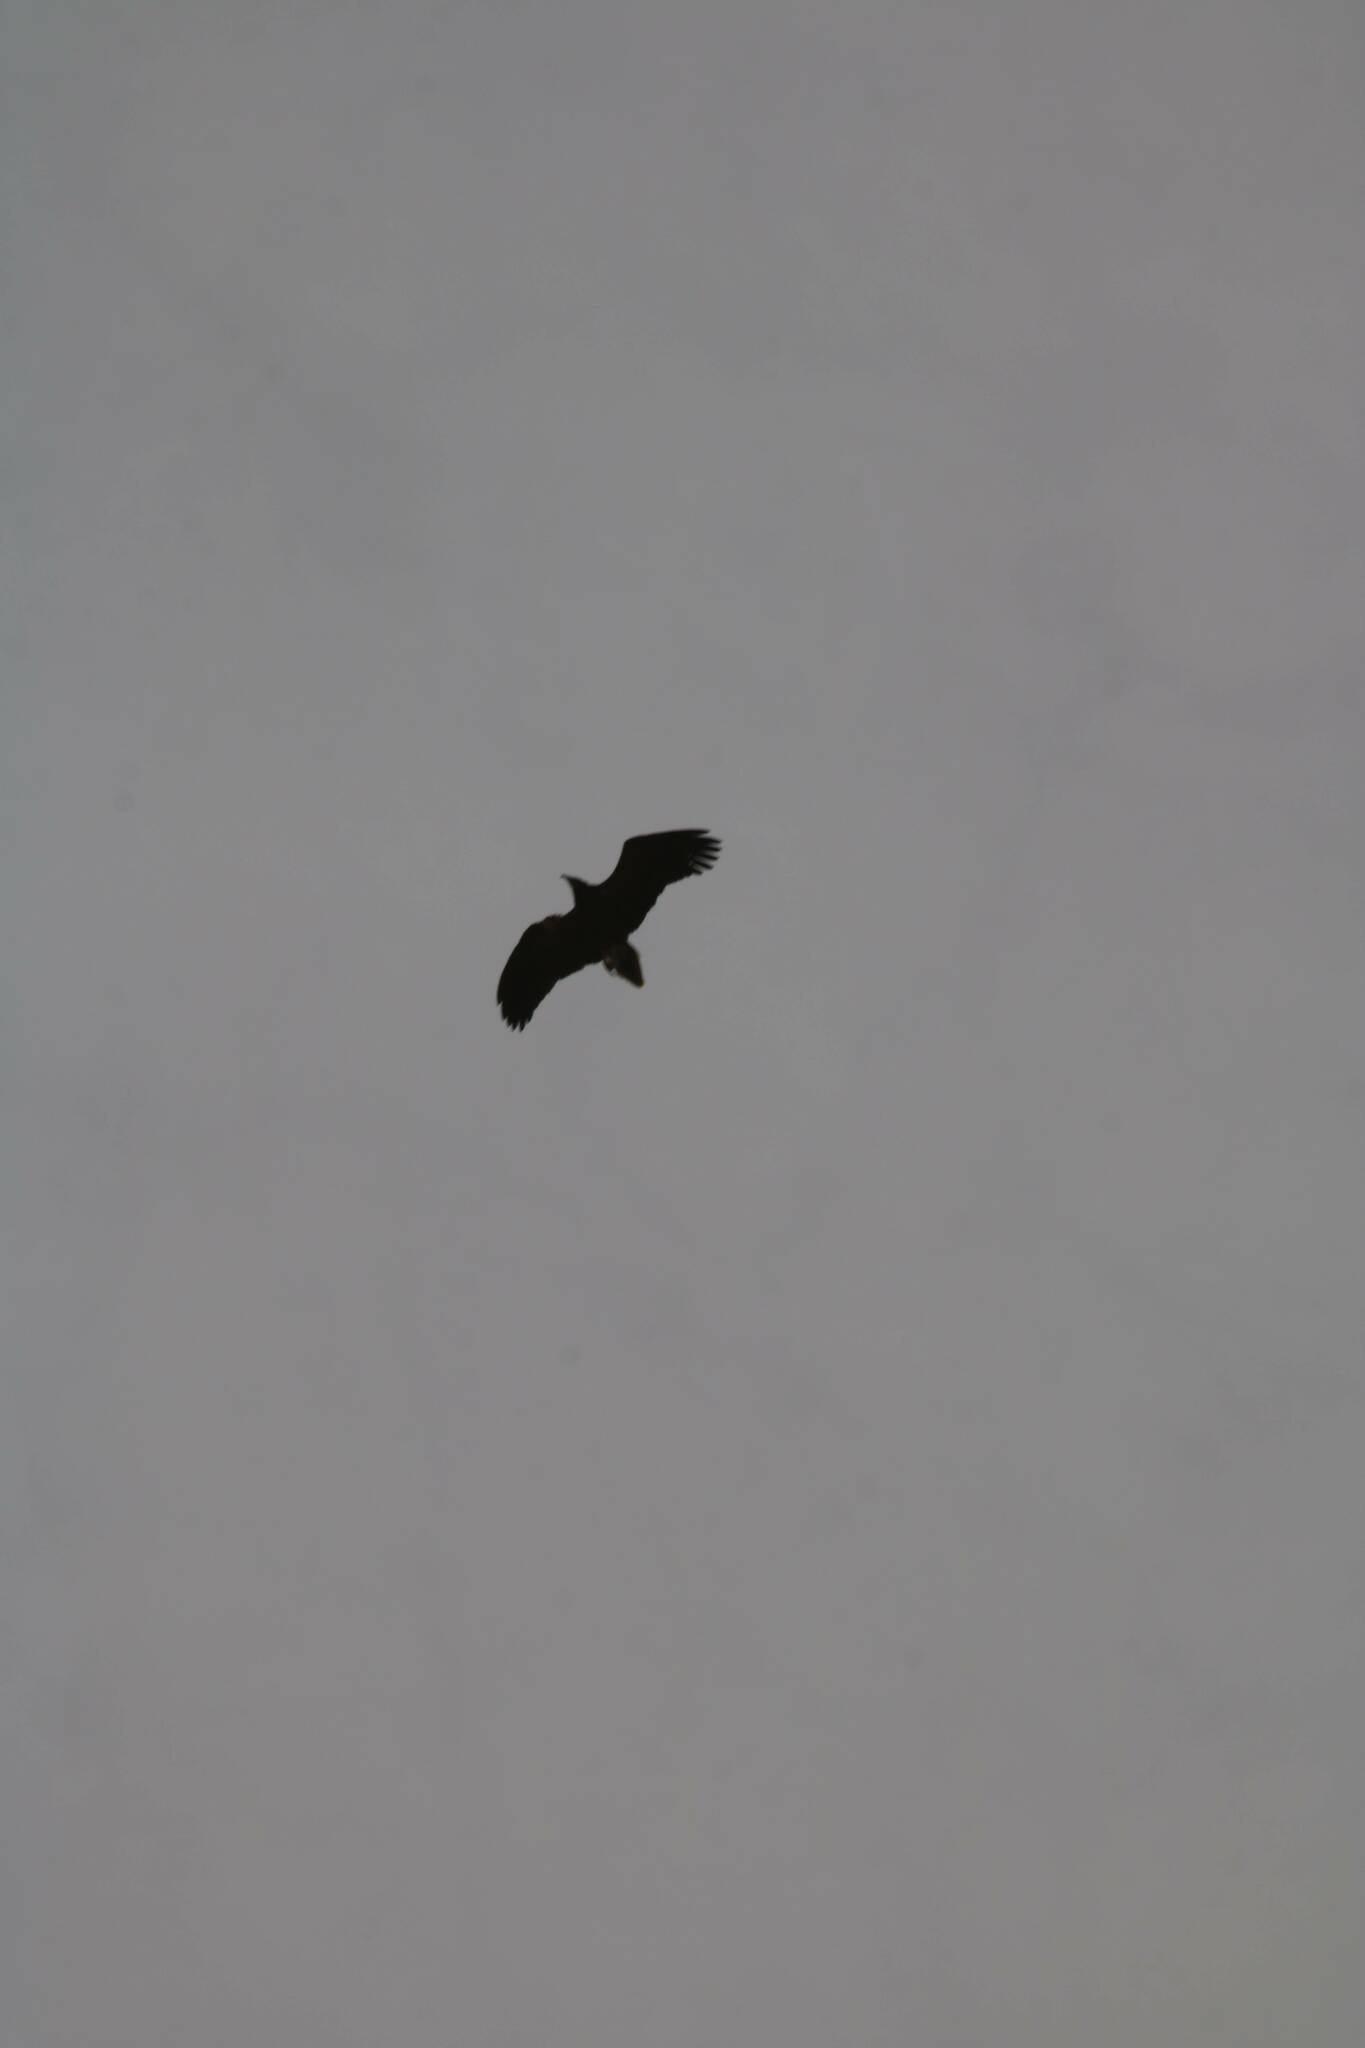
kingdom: Animalia
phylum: Chordata
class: Aves
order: Accipitriformes
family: Accipitridae
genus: Neophron
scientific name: Neophron percnopterus
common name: Egyptian vulture
